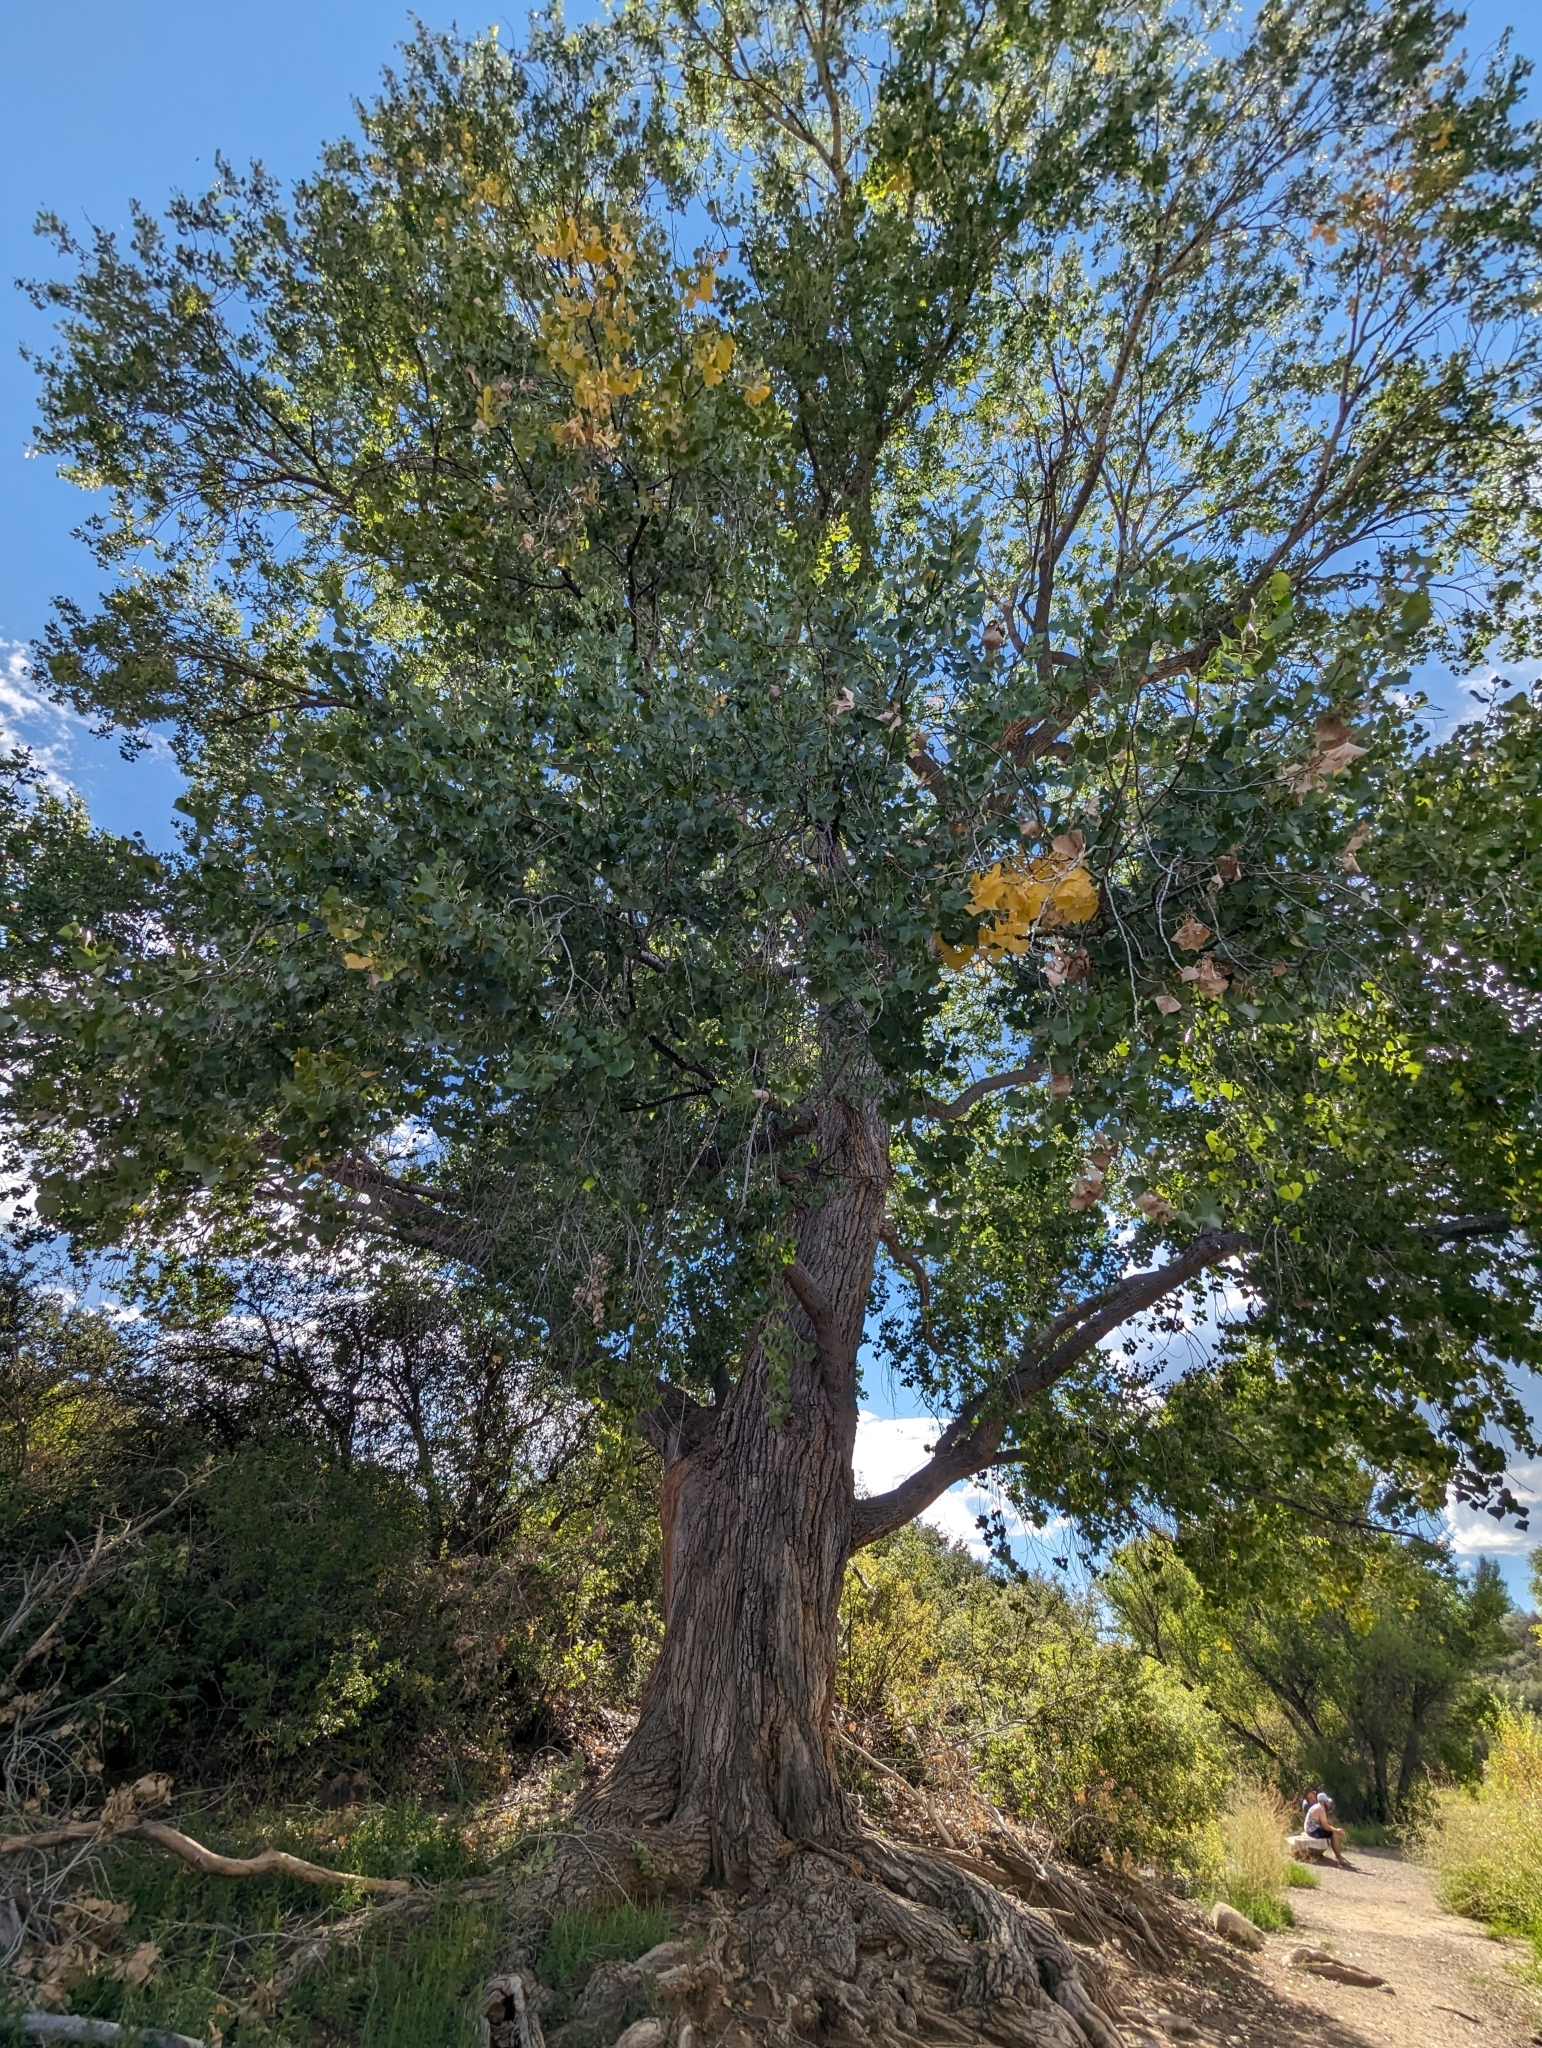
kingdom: Plantae
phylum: Tracheophyta
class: Magnoliopsida
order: Malpighiales
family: Salicaceae
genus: Populus
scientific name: Populus fremontii
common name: Fremont's cottonwood
